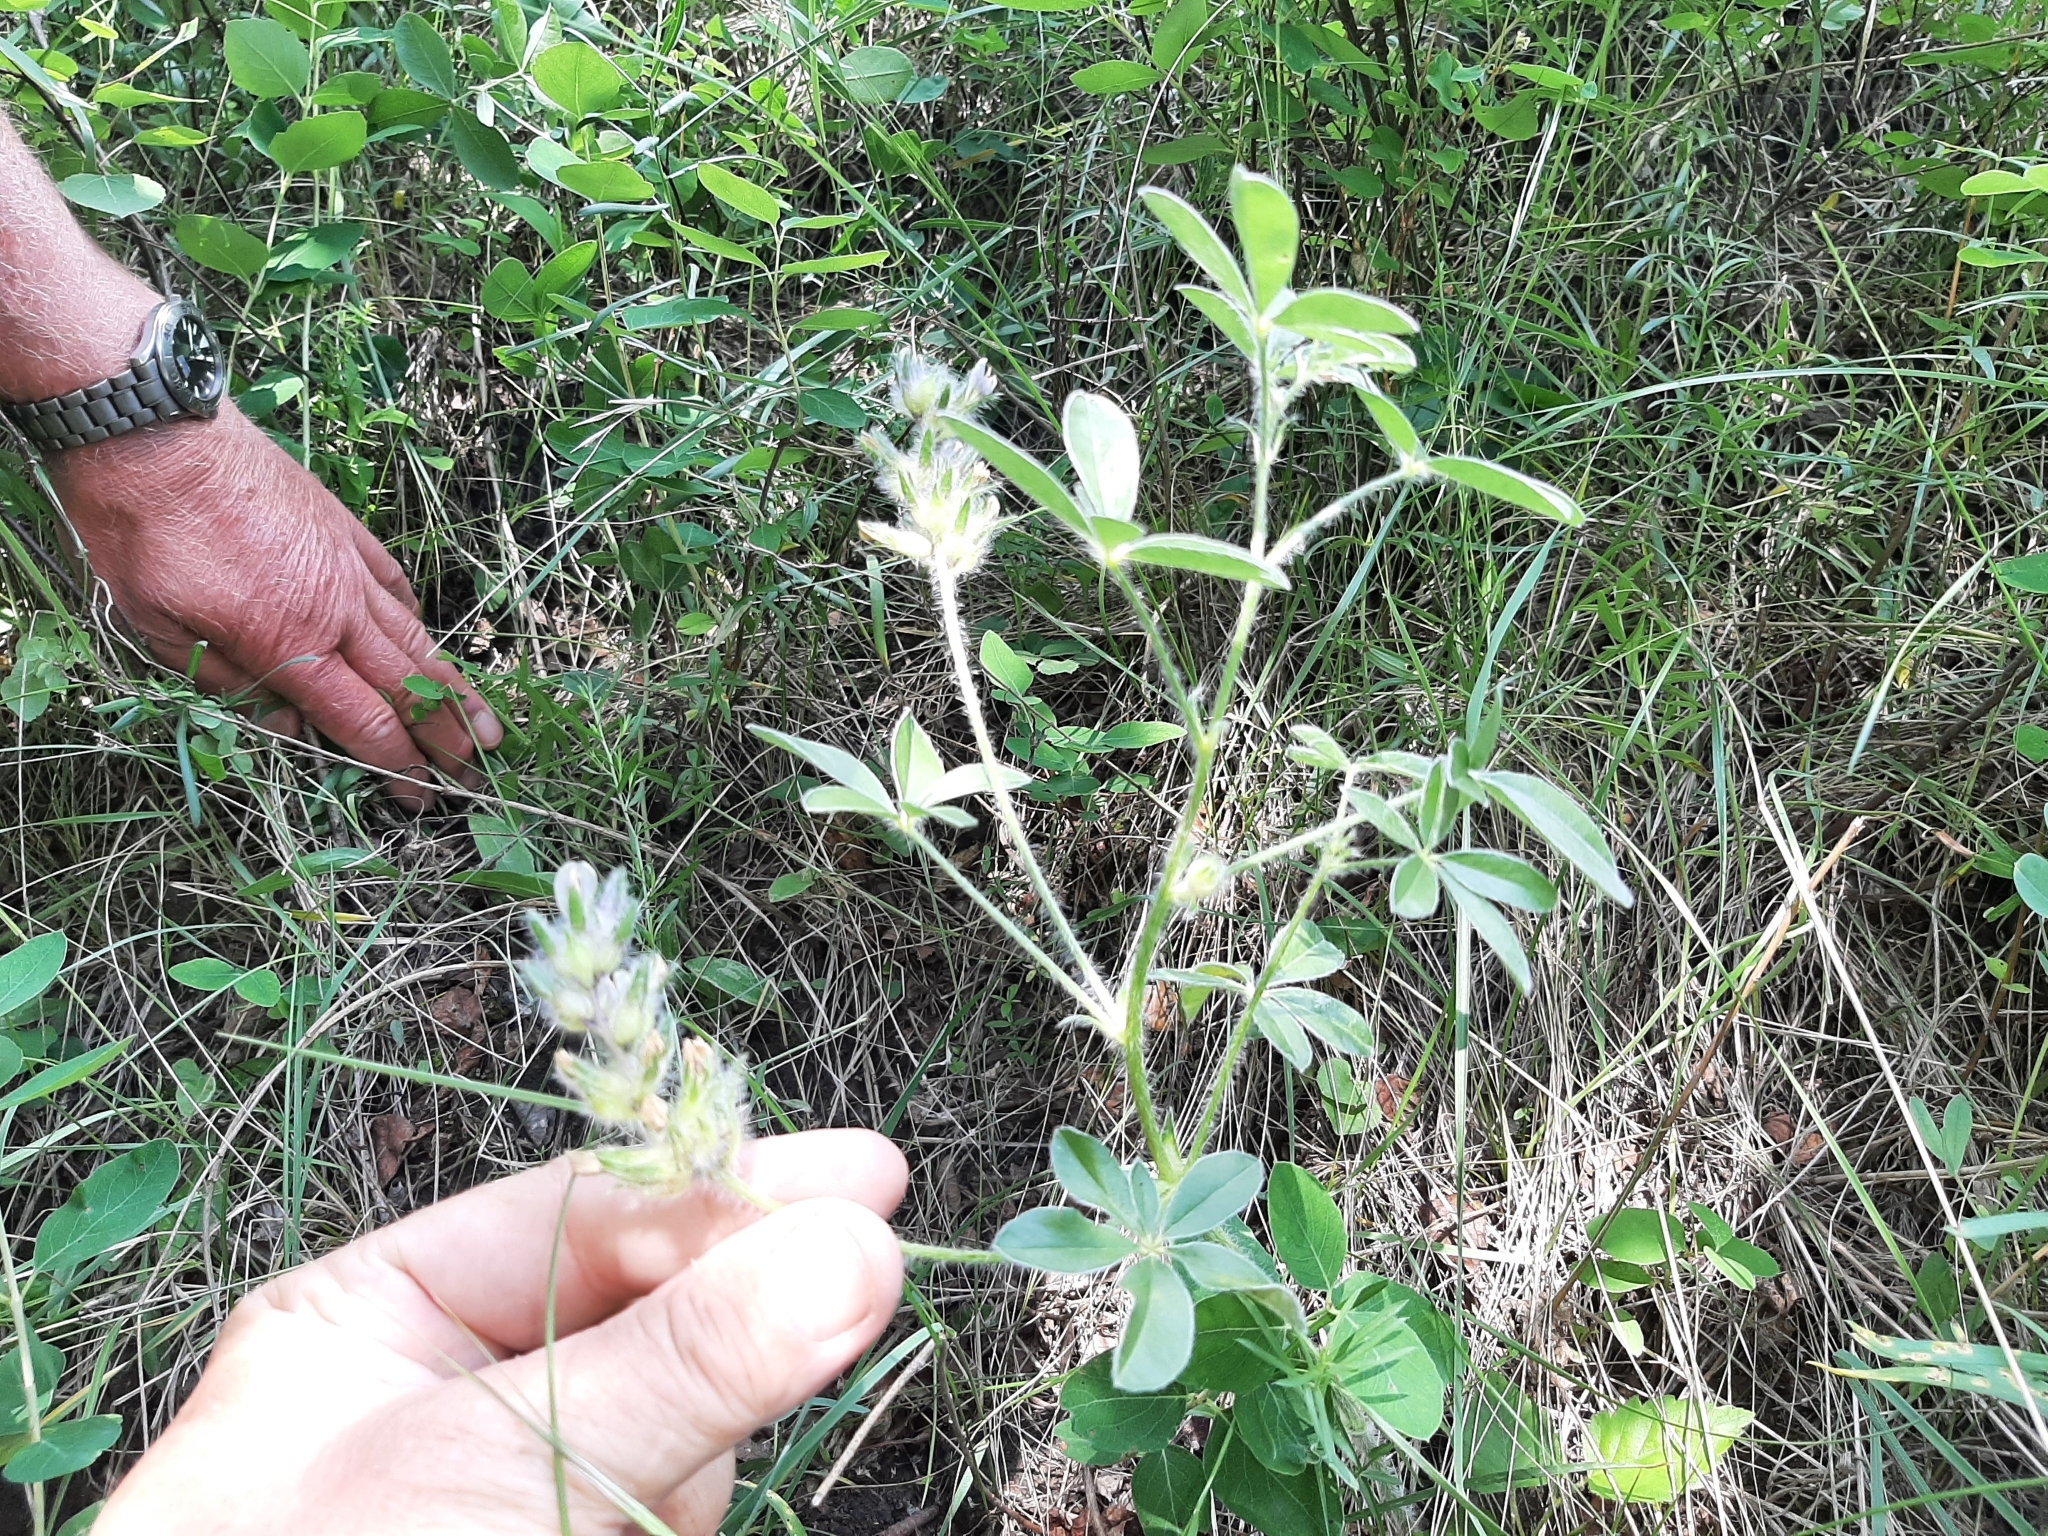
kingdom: Plantae
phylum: Tracheophyta
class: Magnoliopsida
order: Fabales
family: Fabaceae
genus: Pediomelum
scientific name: Pediomelum esculentum
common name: Indian-turnip
